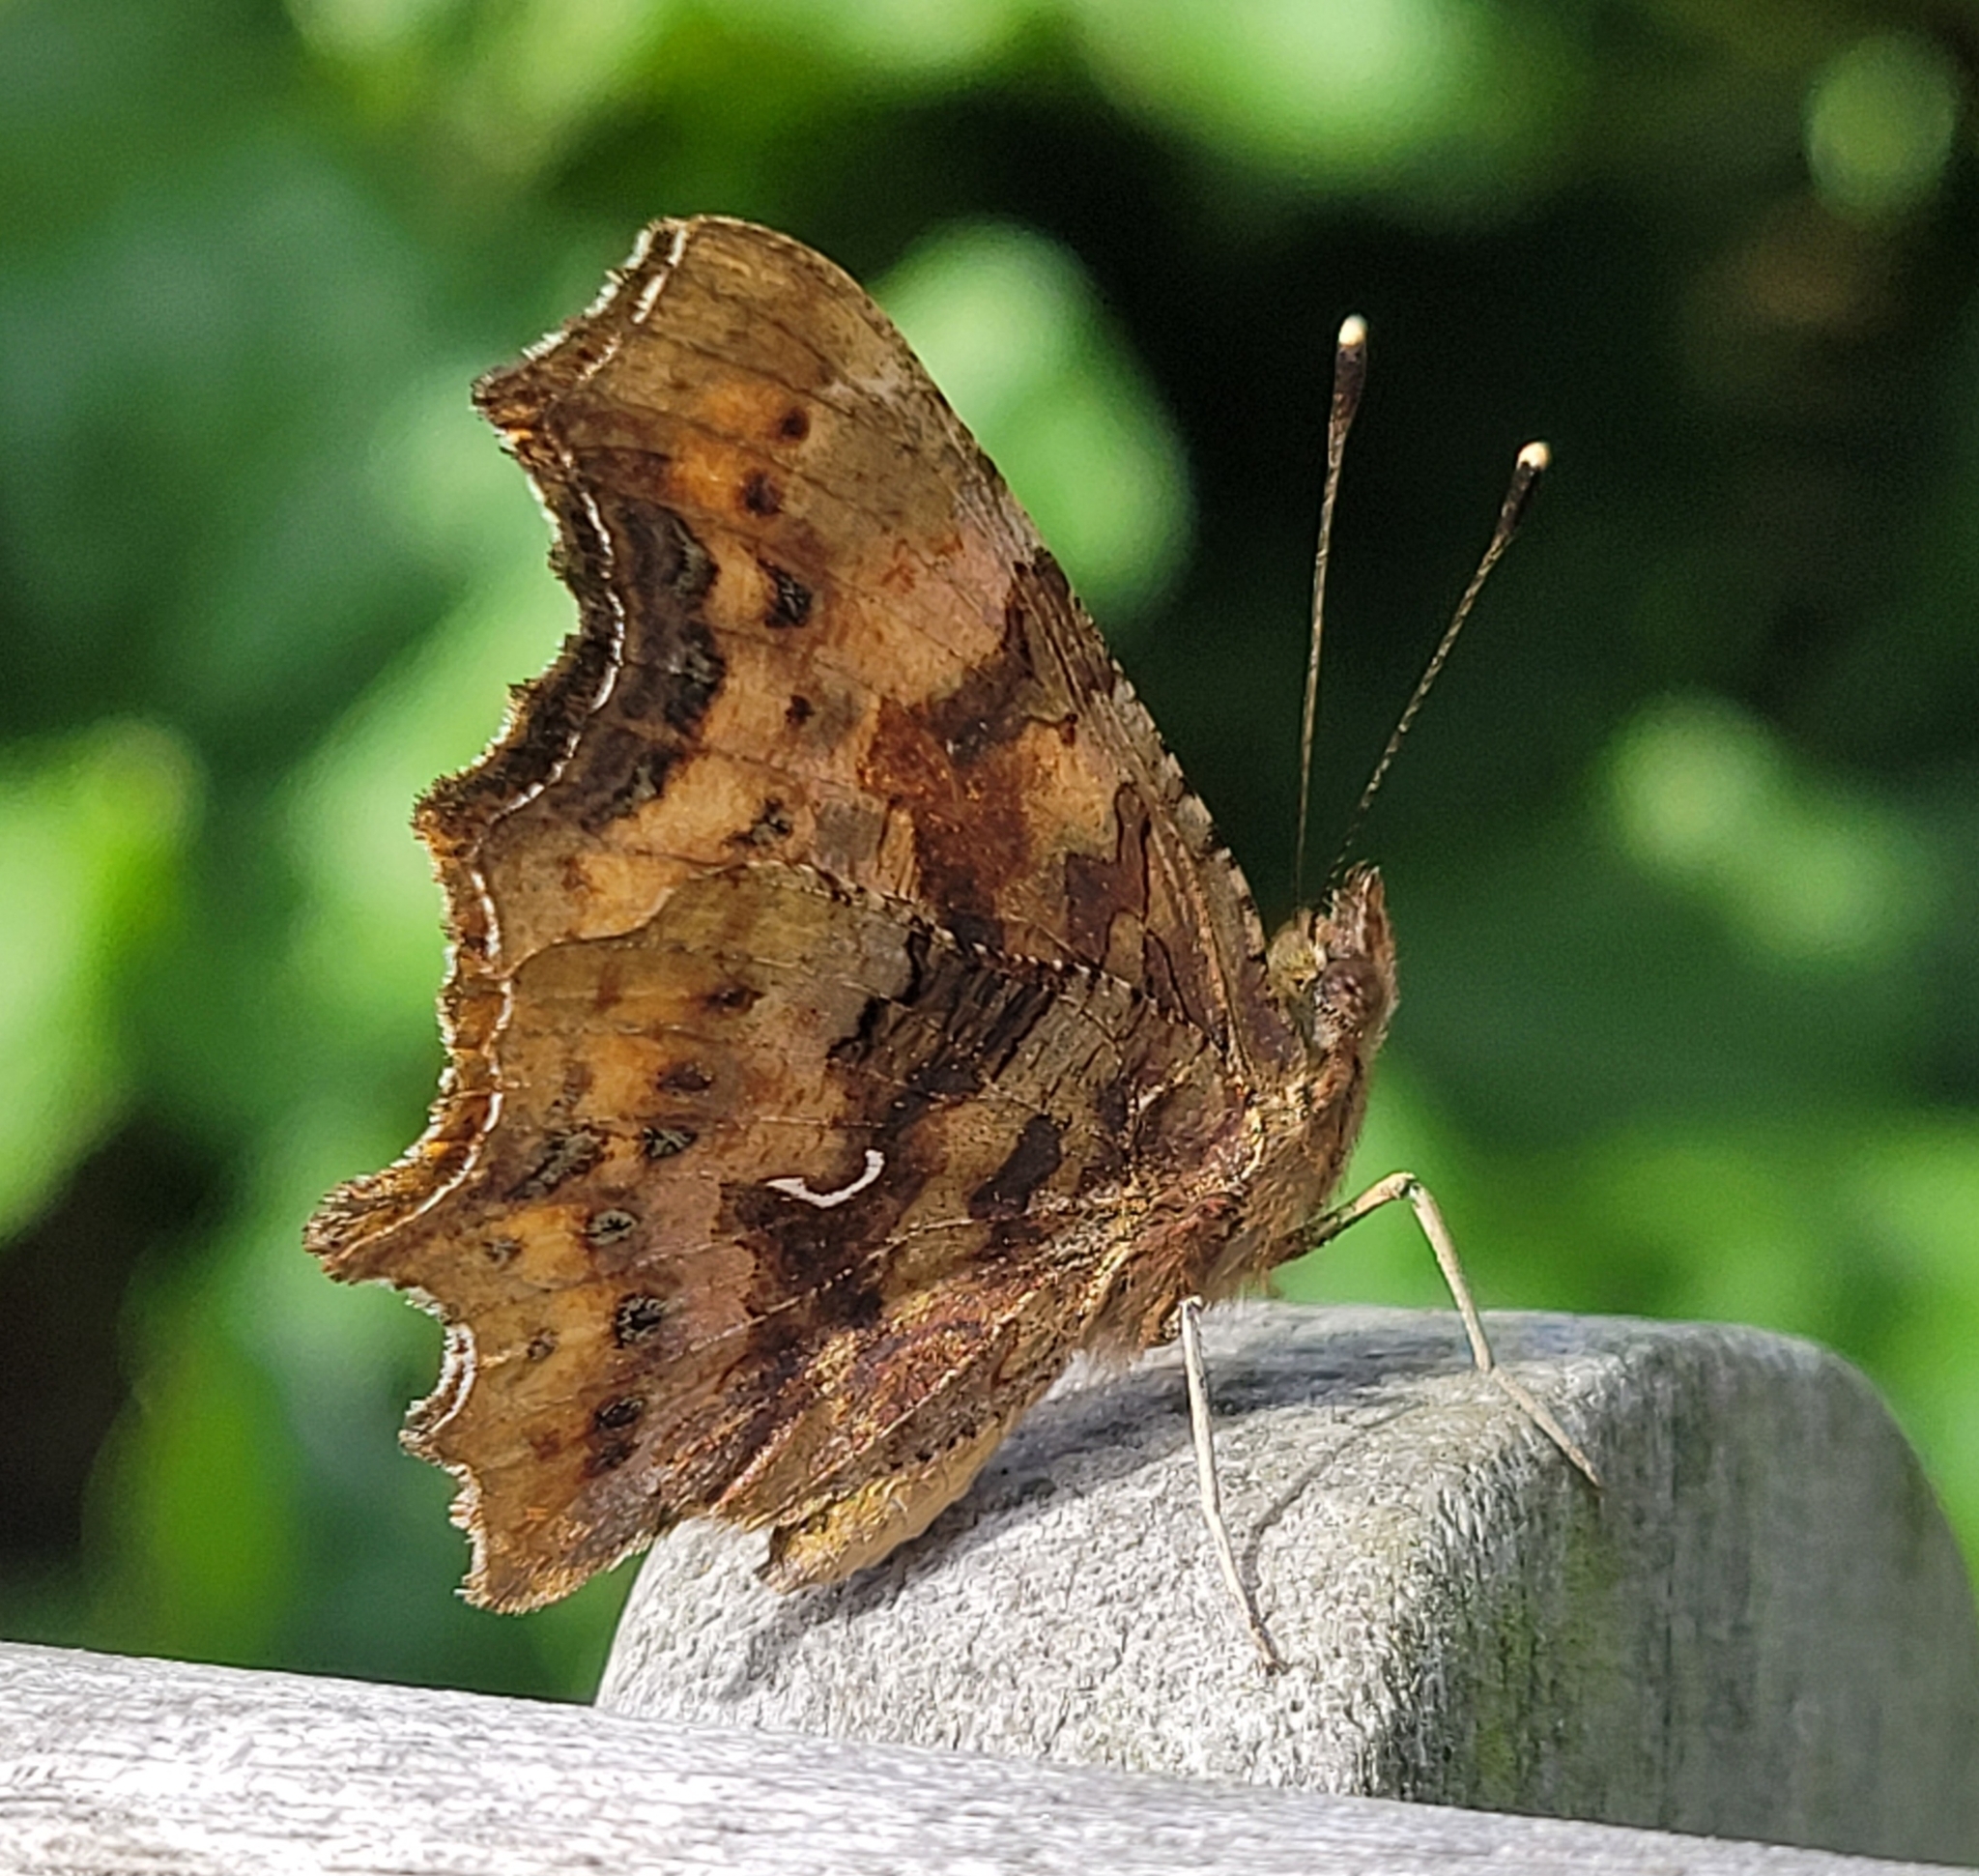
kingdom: Animalia
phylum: Arthropoda
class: Insecta
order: Lepidoptera
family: Nymphalidae
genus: Polygonia
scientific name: Polygonia c-album
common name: Comma
